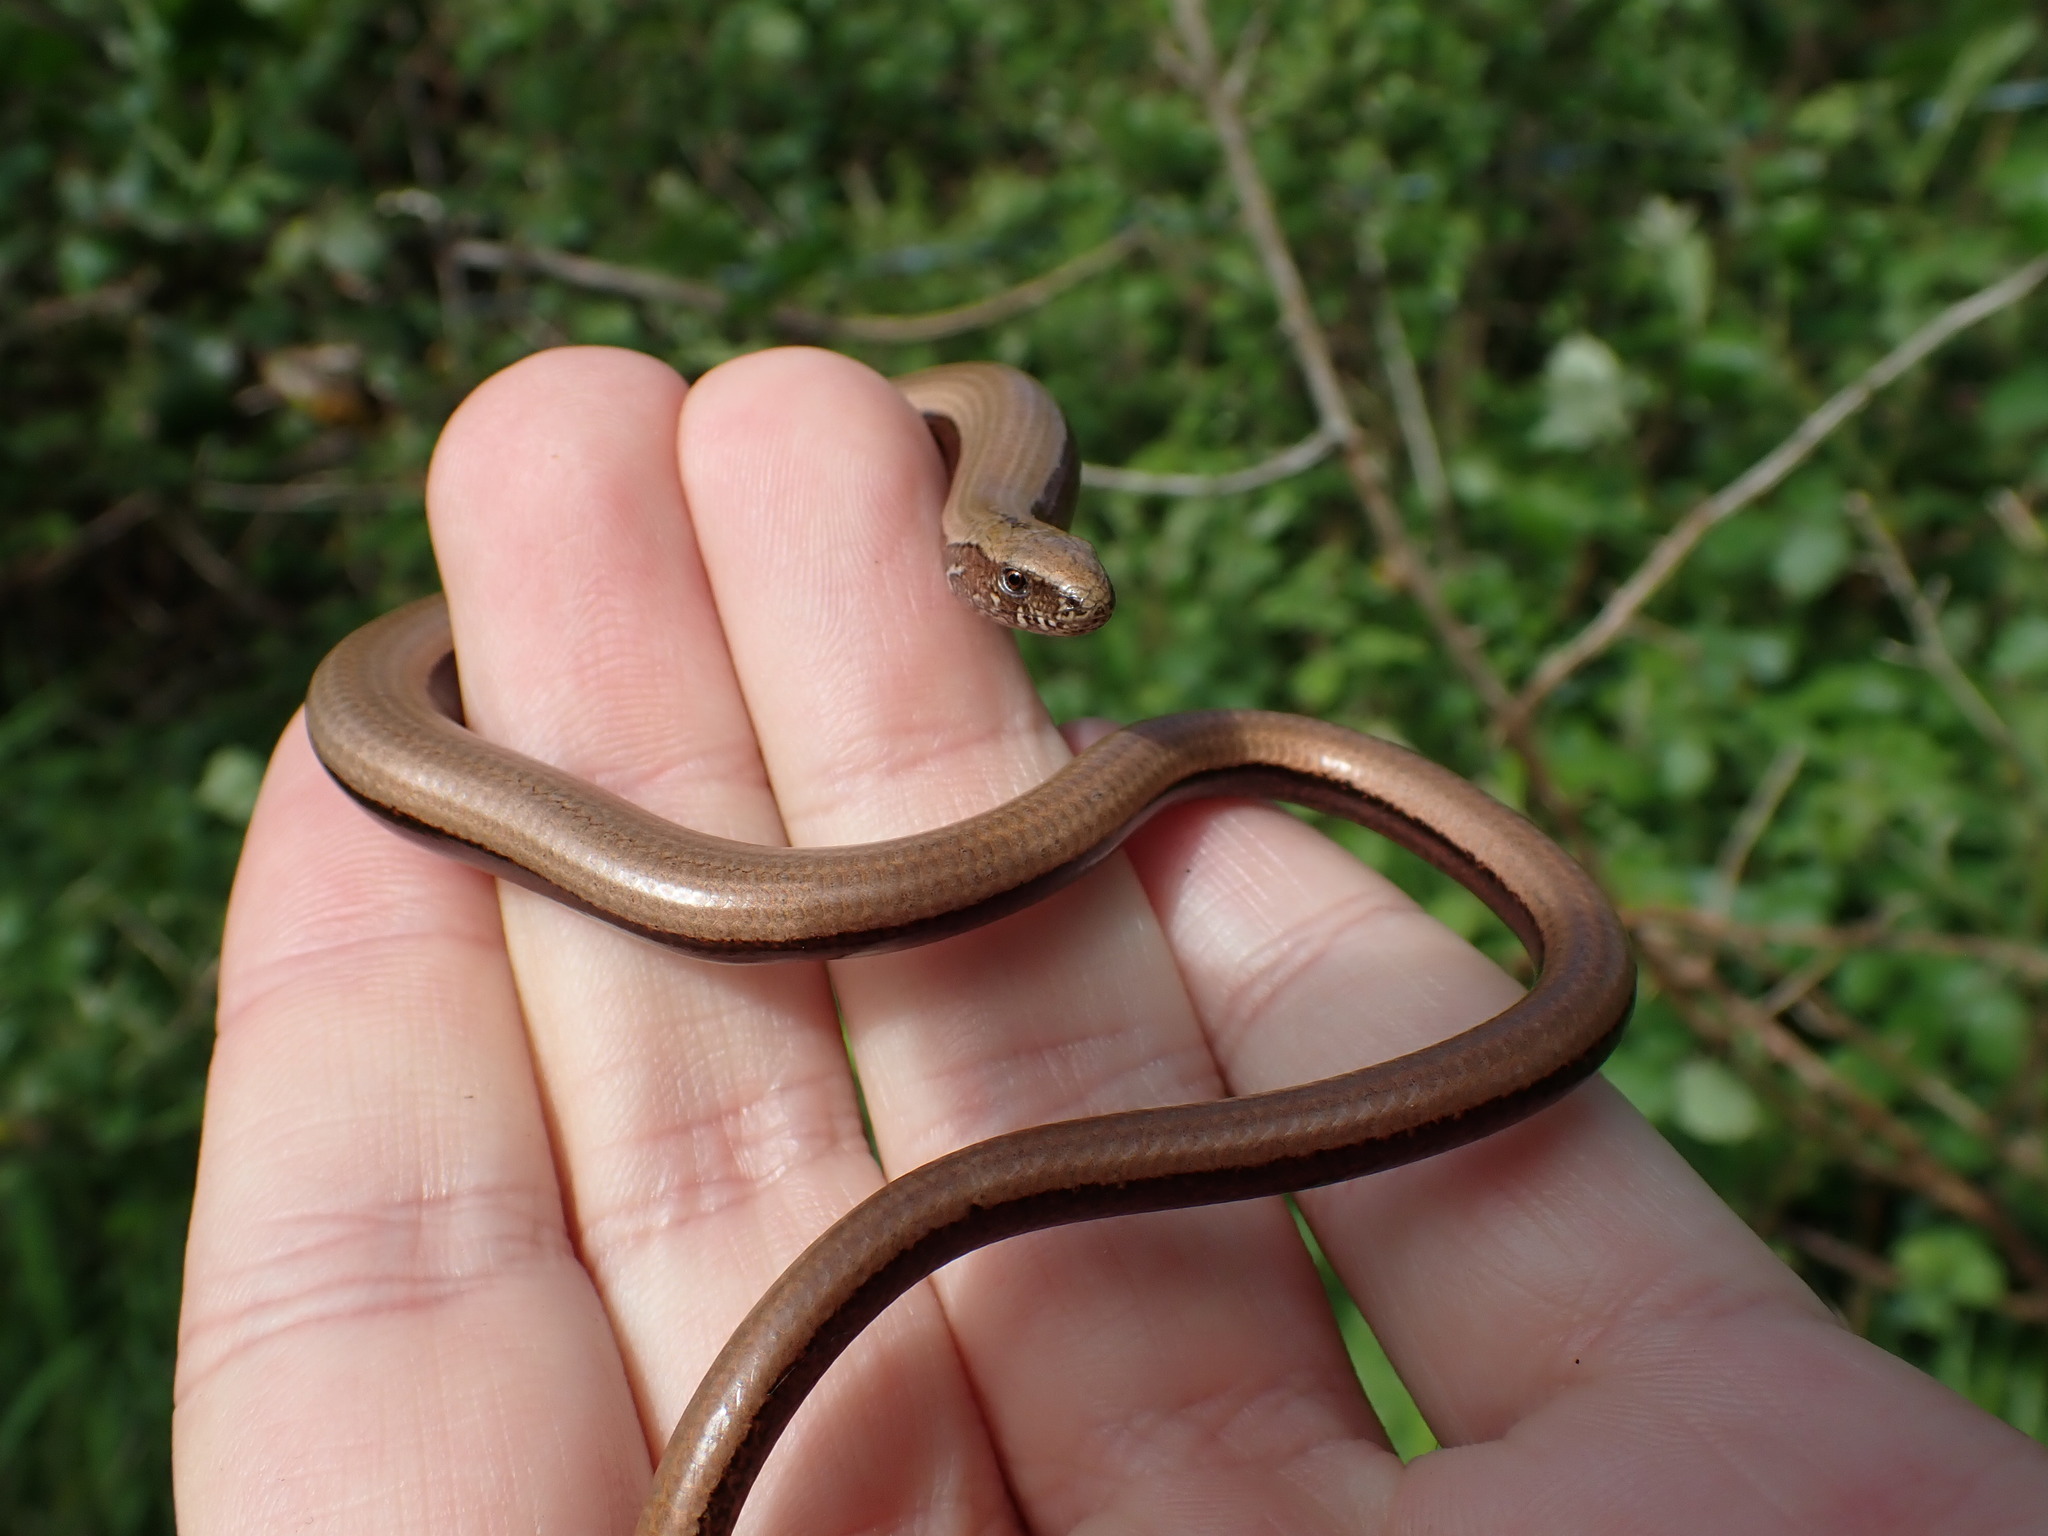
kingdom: Animalia
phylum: Chordata
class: Squamata
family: Anguidae
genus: Anguis
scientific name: Anguis fragilis
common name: Slow worm
